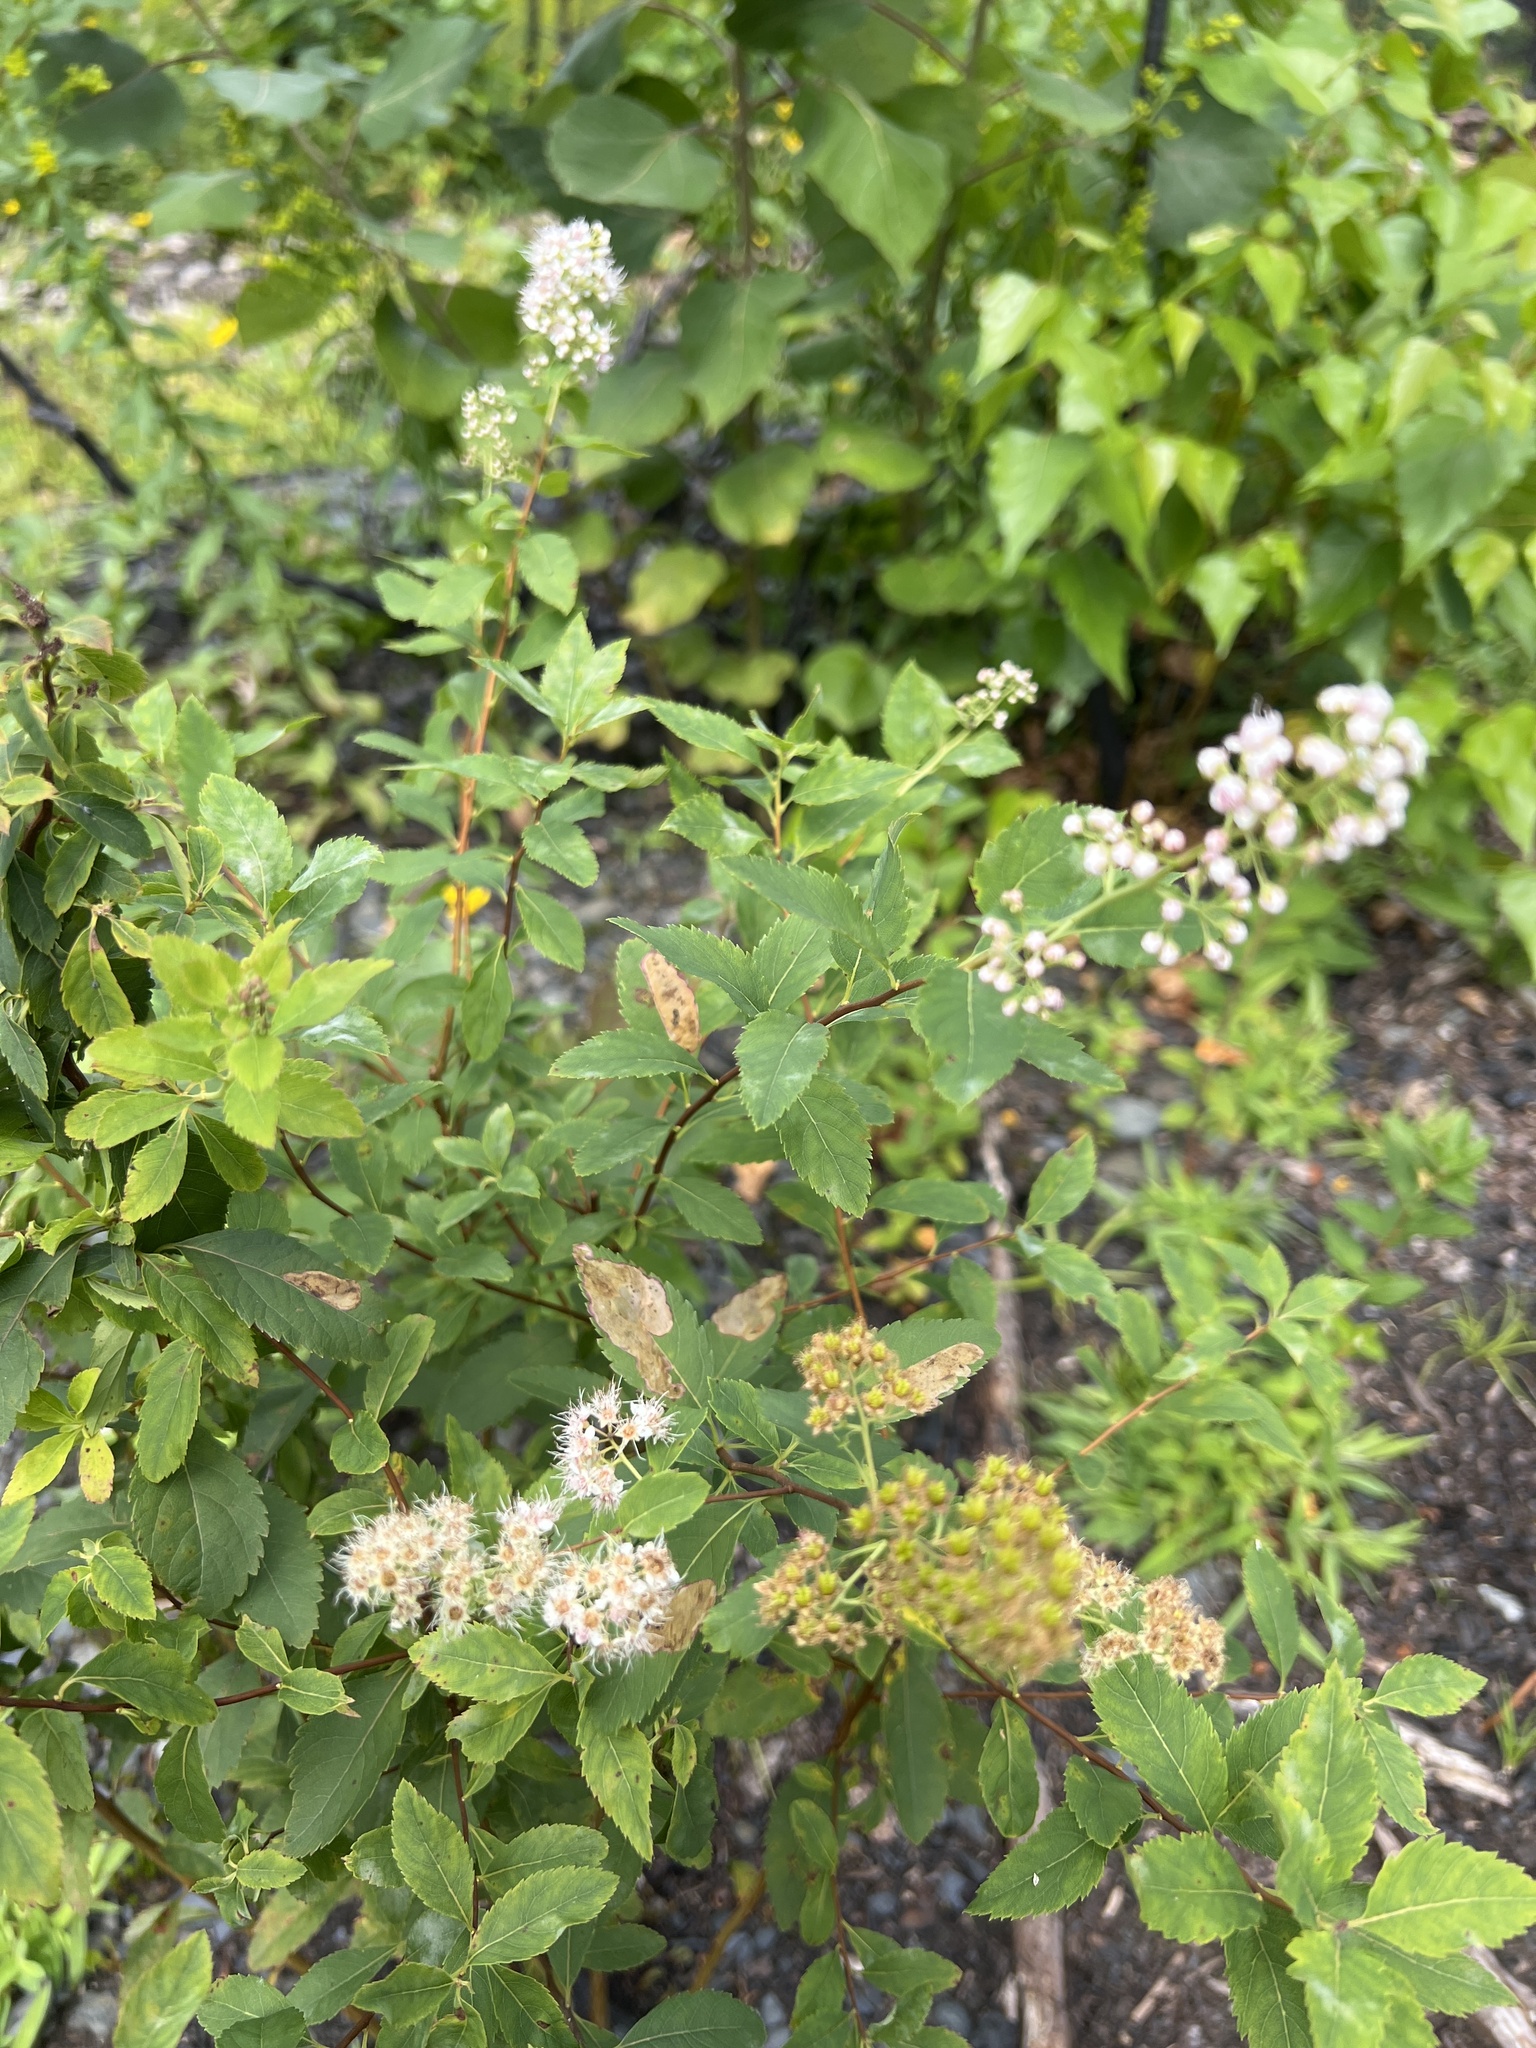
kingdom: Plantae
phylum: Tracheophyta
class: Magnoliopsida
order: Rosales
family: Rosaceae
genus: Spiraea
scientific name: Spiraea alba
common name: Pale bridewort
